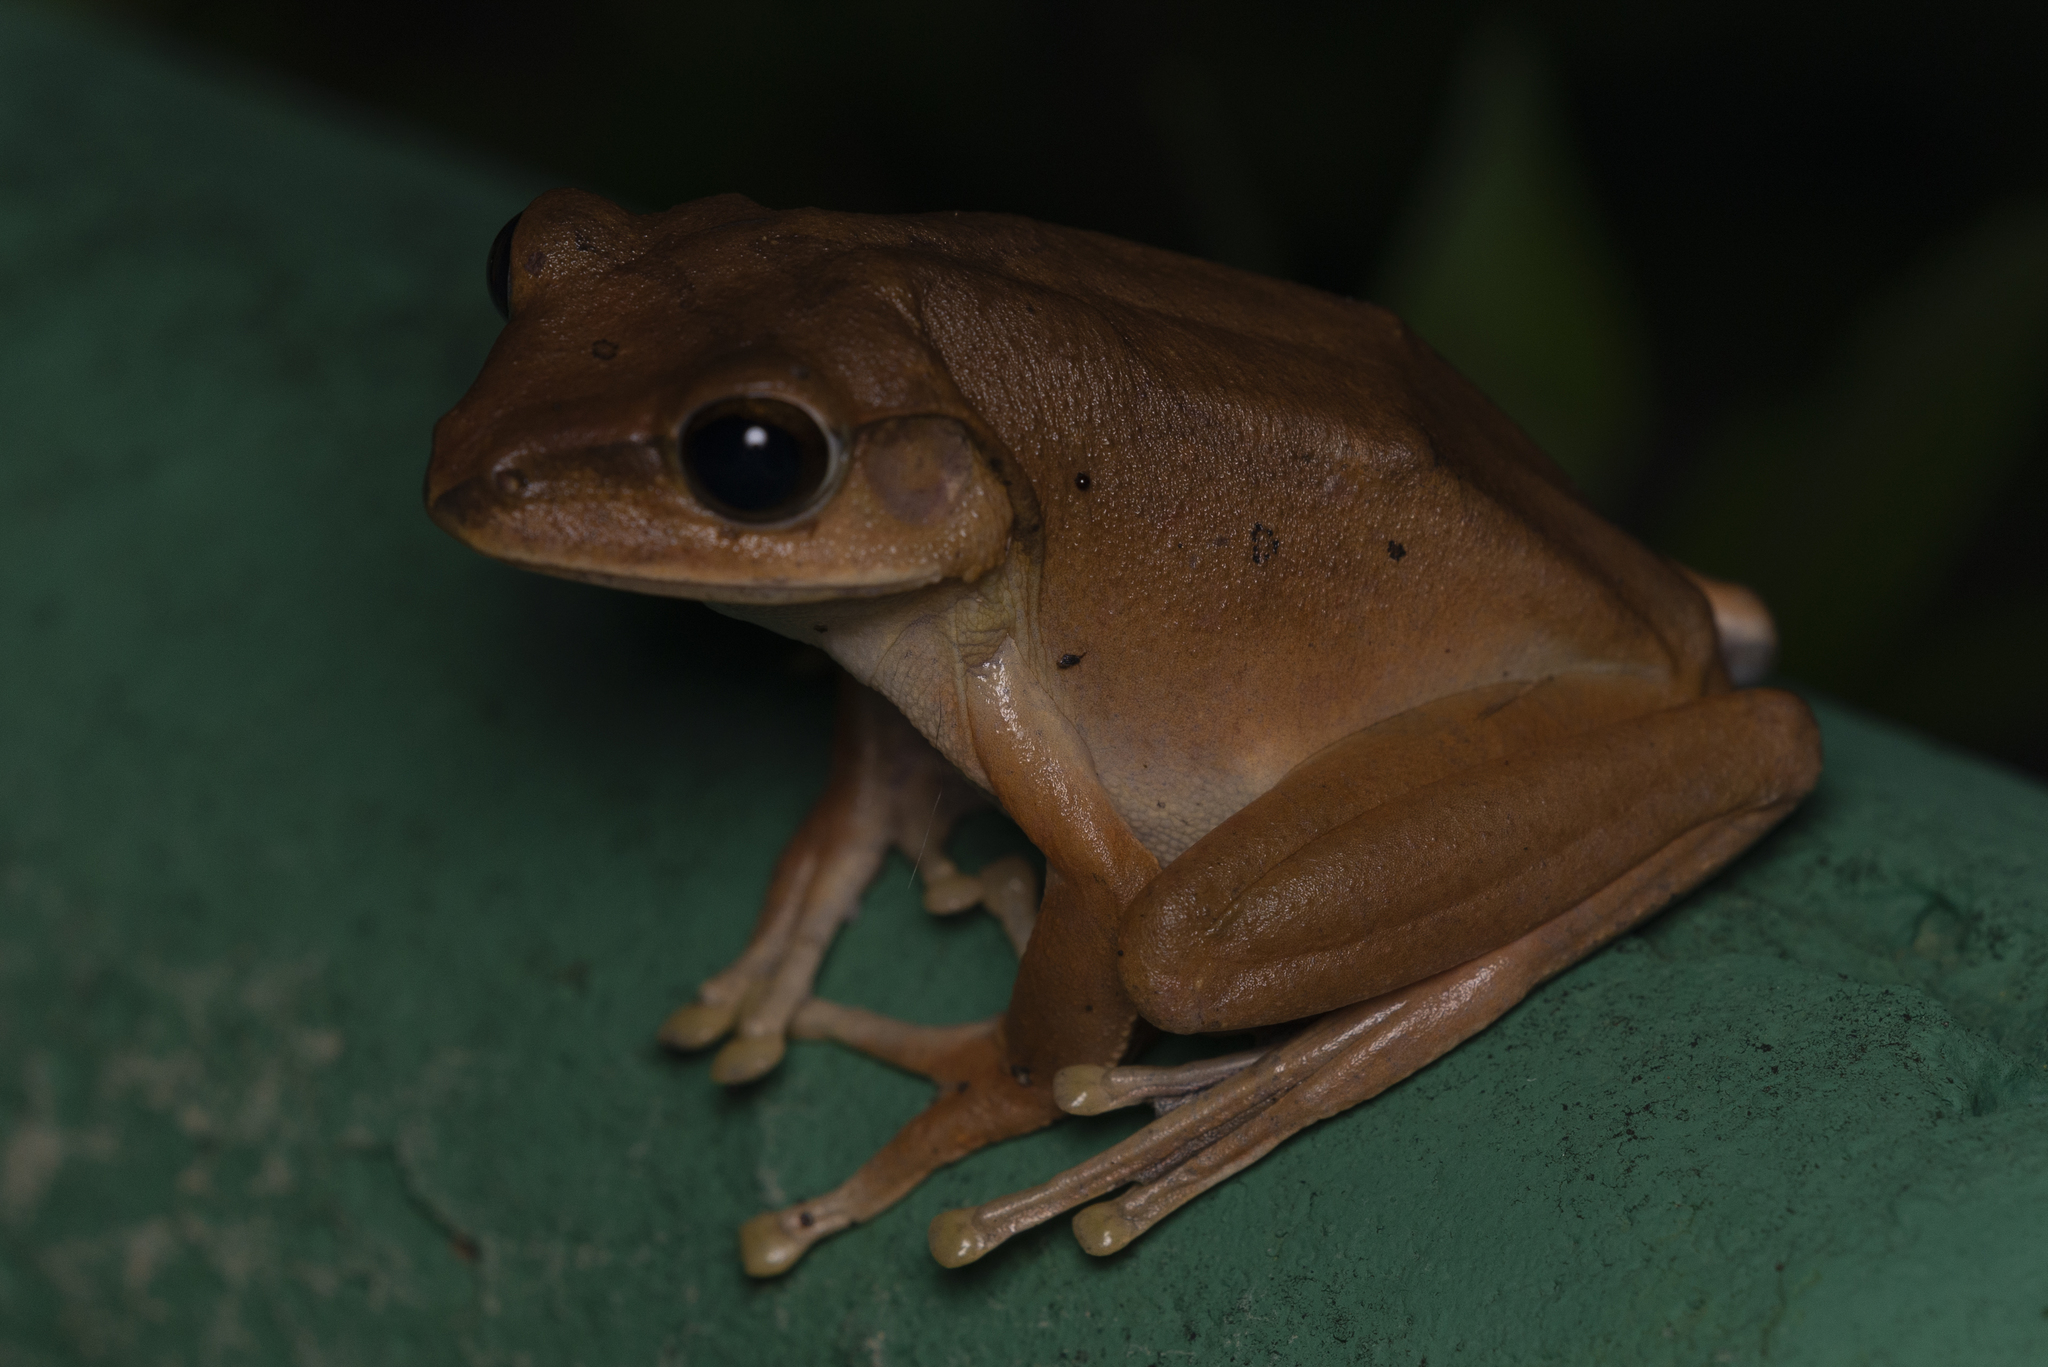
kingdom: Animalia
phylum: Chordata
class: Amphibia
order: Anura
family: Rhacophoridae
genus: Polypedates
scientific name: Polypedates megacephalus
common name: Hong kong whipping frog
